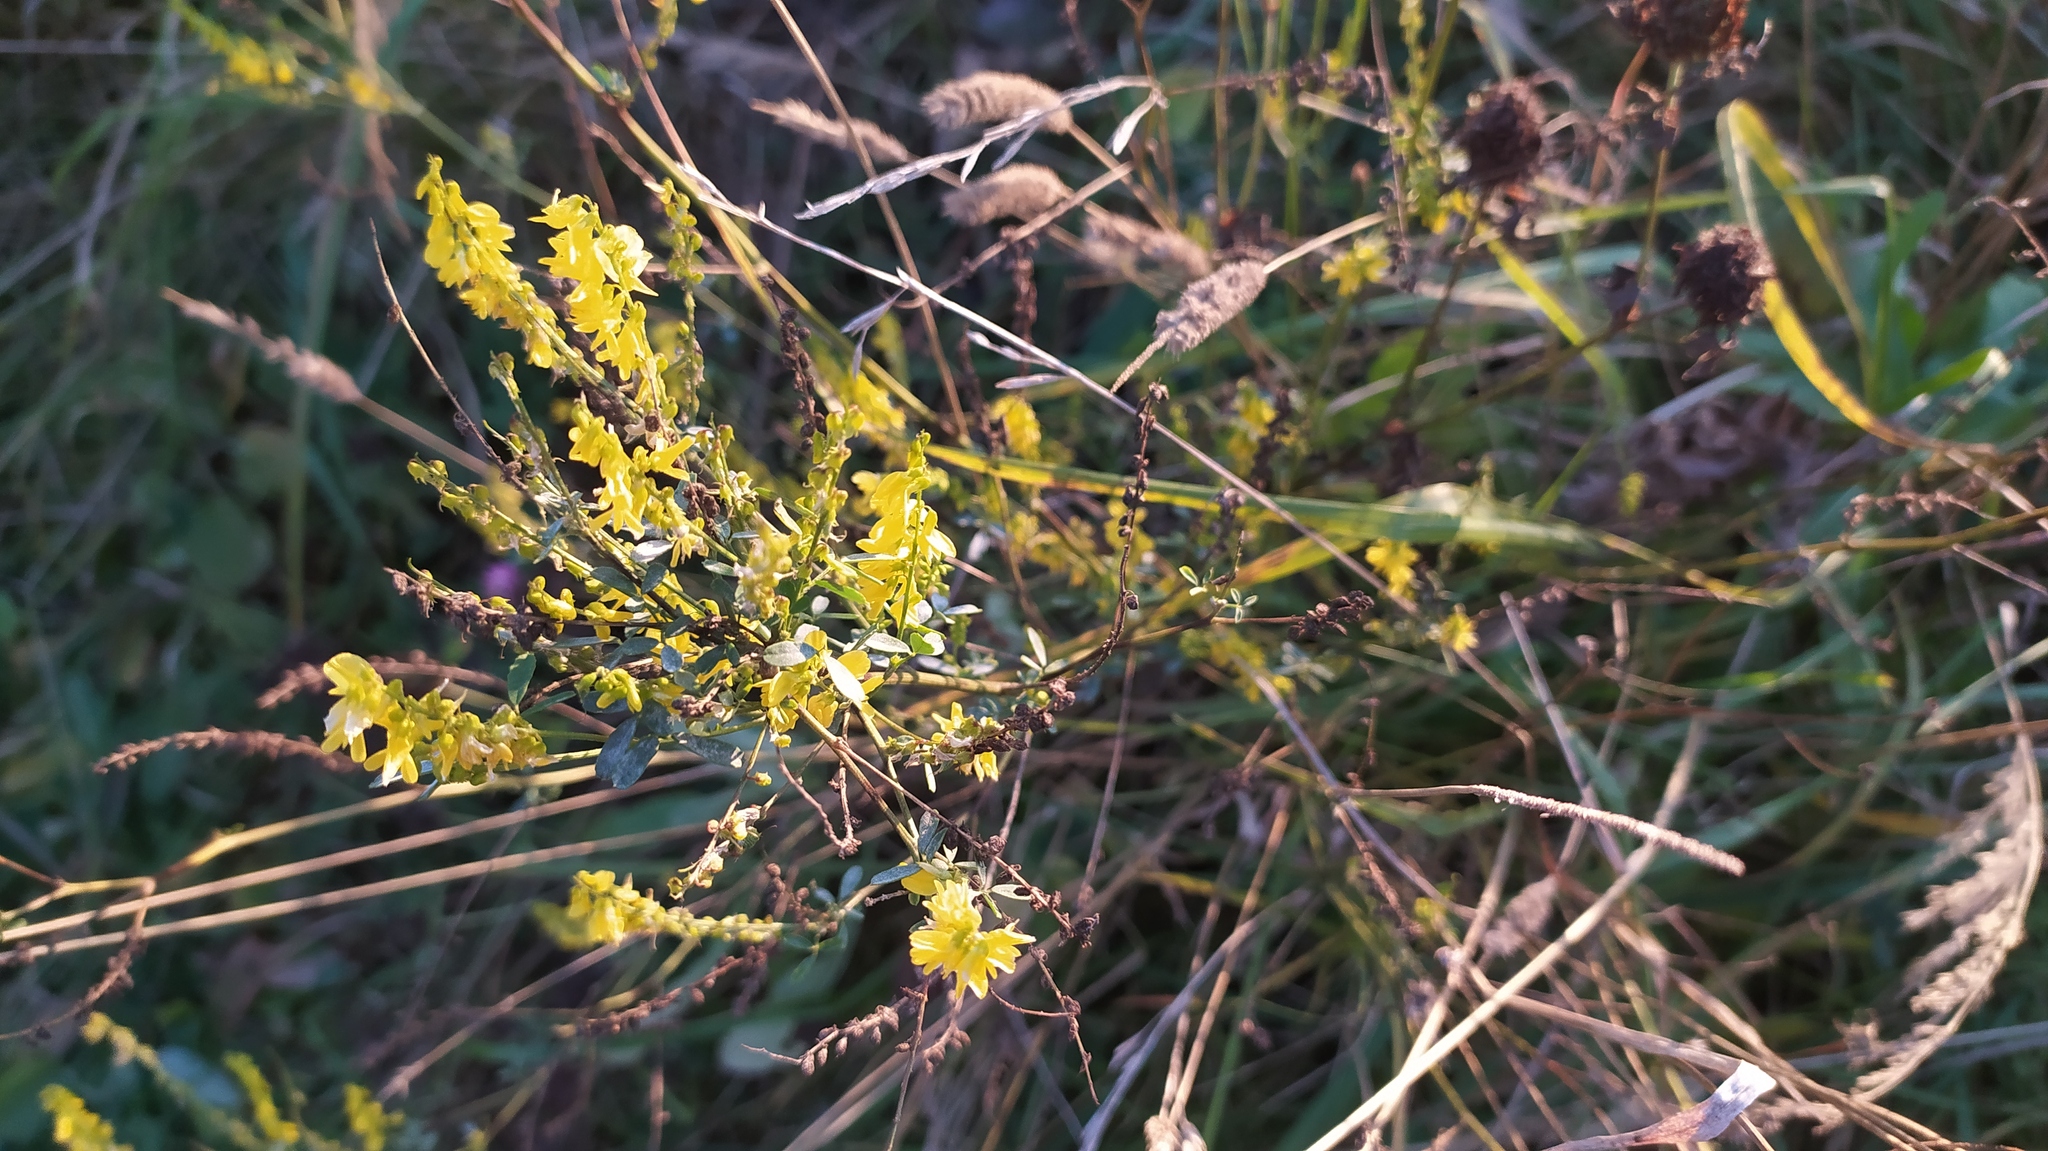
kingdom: Plantae
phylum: Tracheophyta
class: Magnoliopsida
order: Fabales
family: Fabaceae
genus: Melilotus
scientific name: Melilotus officinalis
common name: Sweetclover
